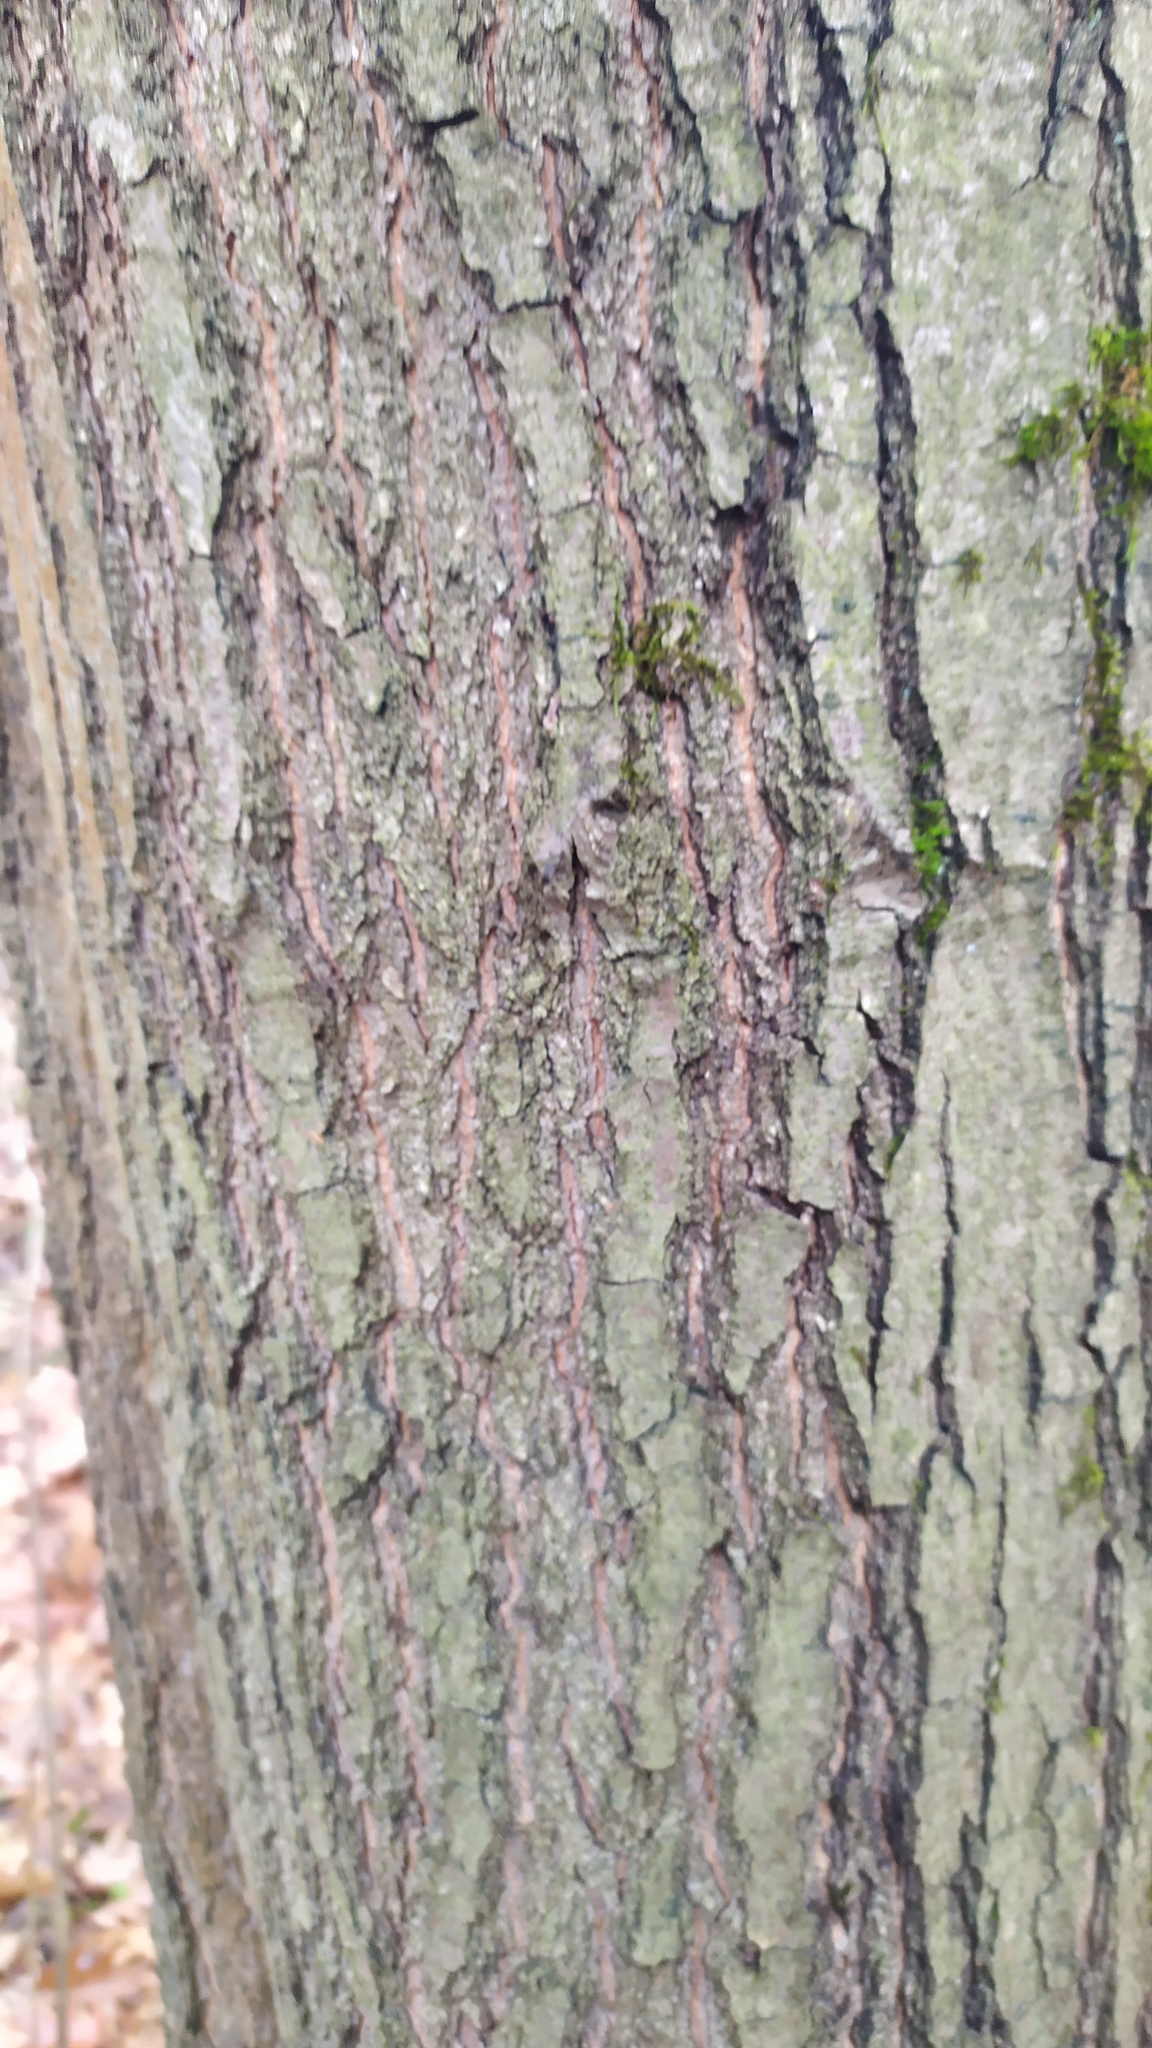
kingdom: Plantae
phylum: Tracheophyta
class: Magnoliopsida
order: Fagales
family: Fagaceae
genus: Quercus
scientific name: Quercus rubra
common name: Red oak
